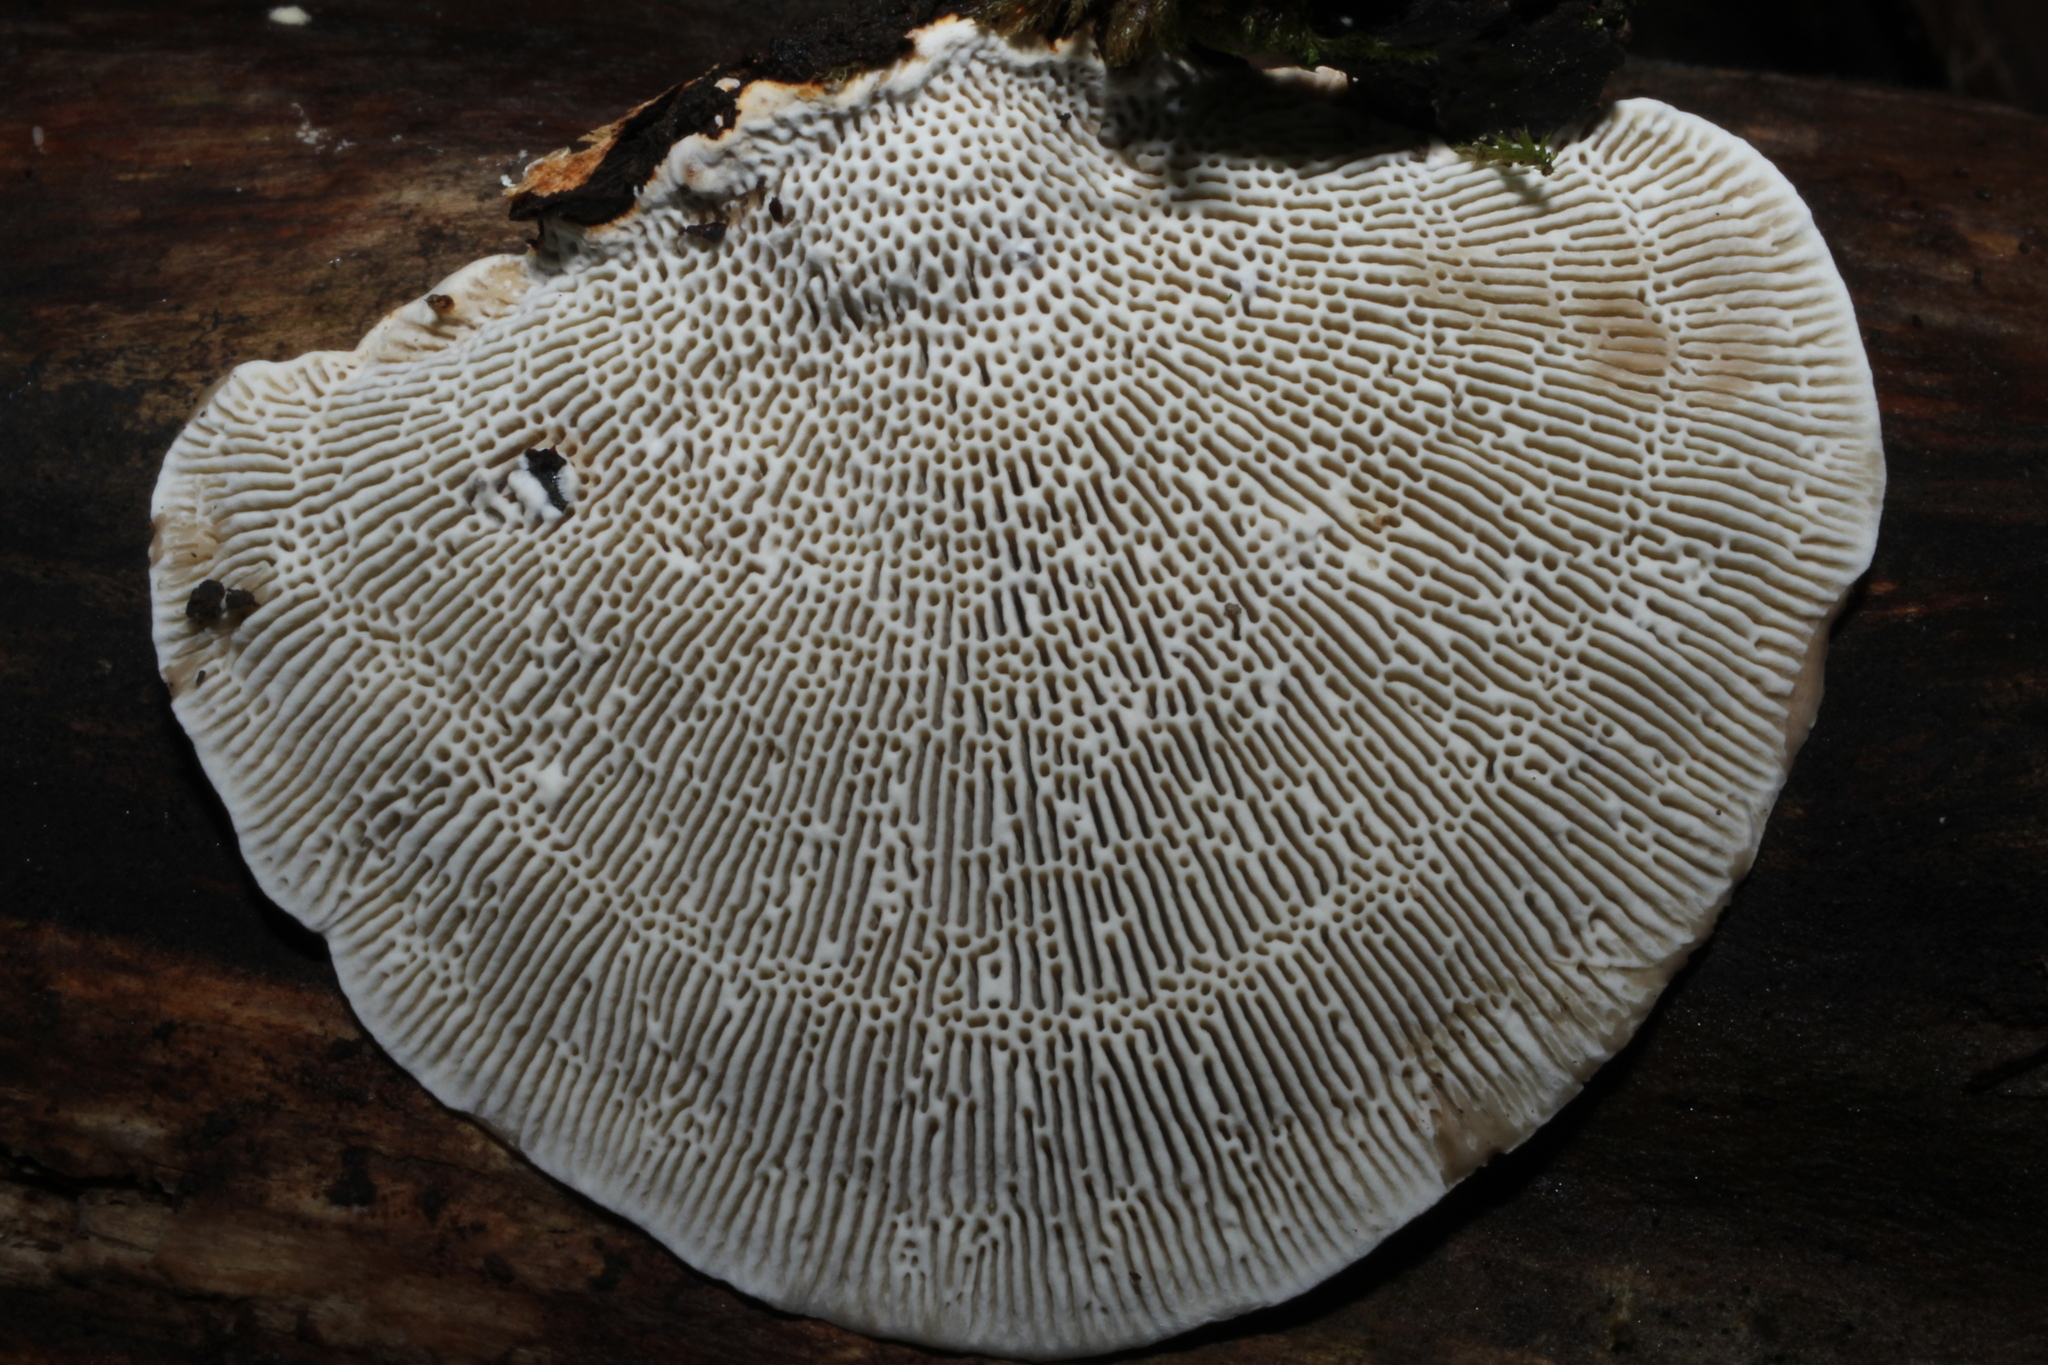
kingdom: Fungi
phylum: Basidiomycota
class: Agaricomycetes
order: Polyporales
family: Polyporaceae
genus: Daedaleopsis
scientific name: Daedaleopsis confragosa
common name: Blushing bracket
